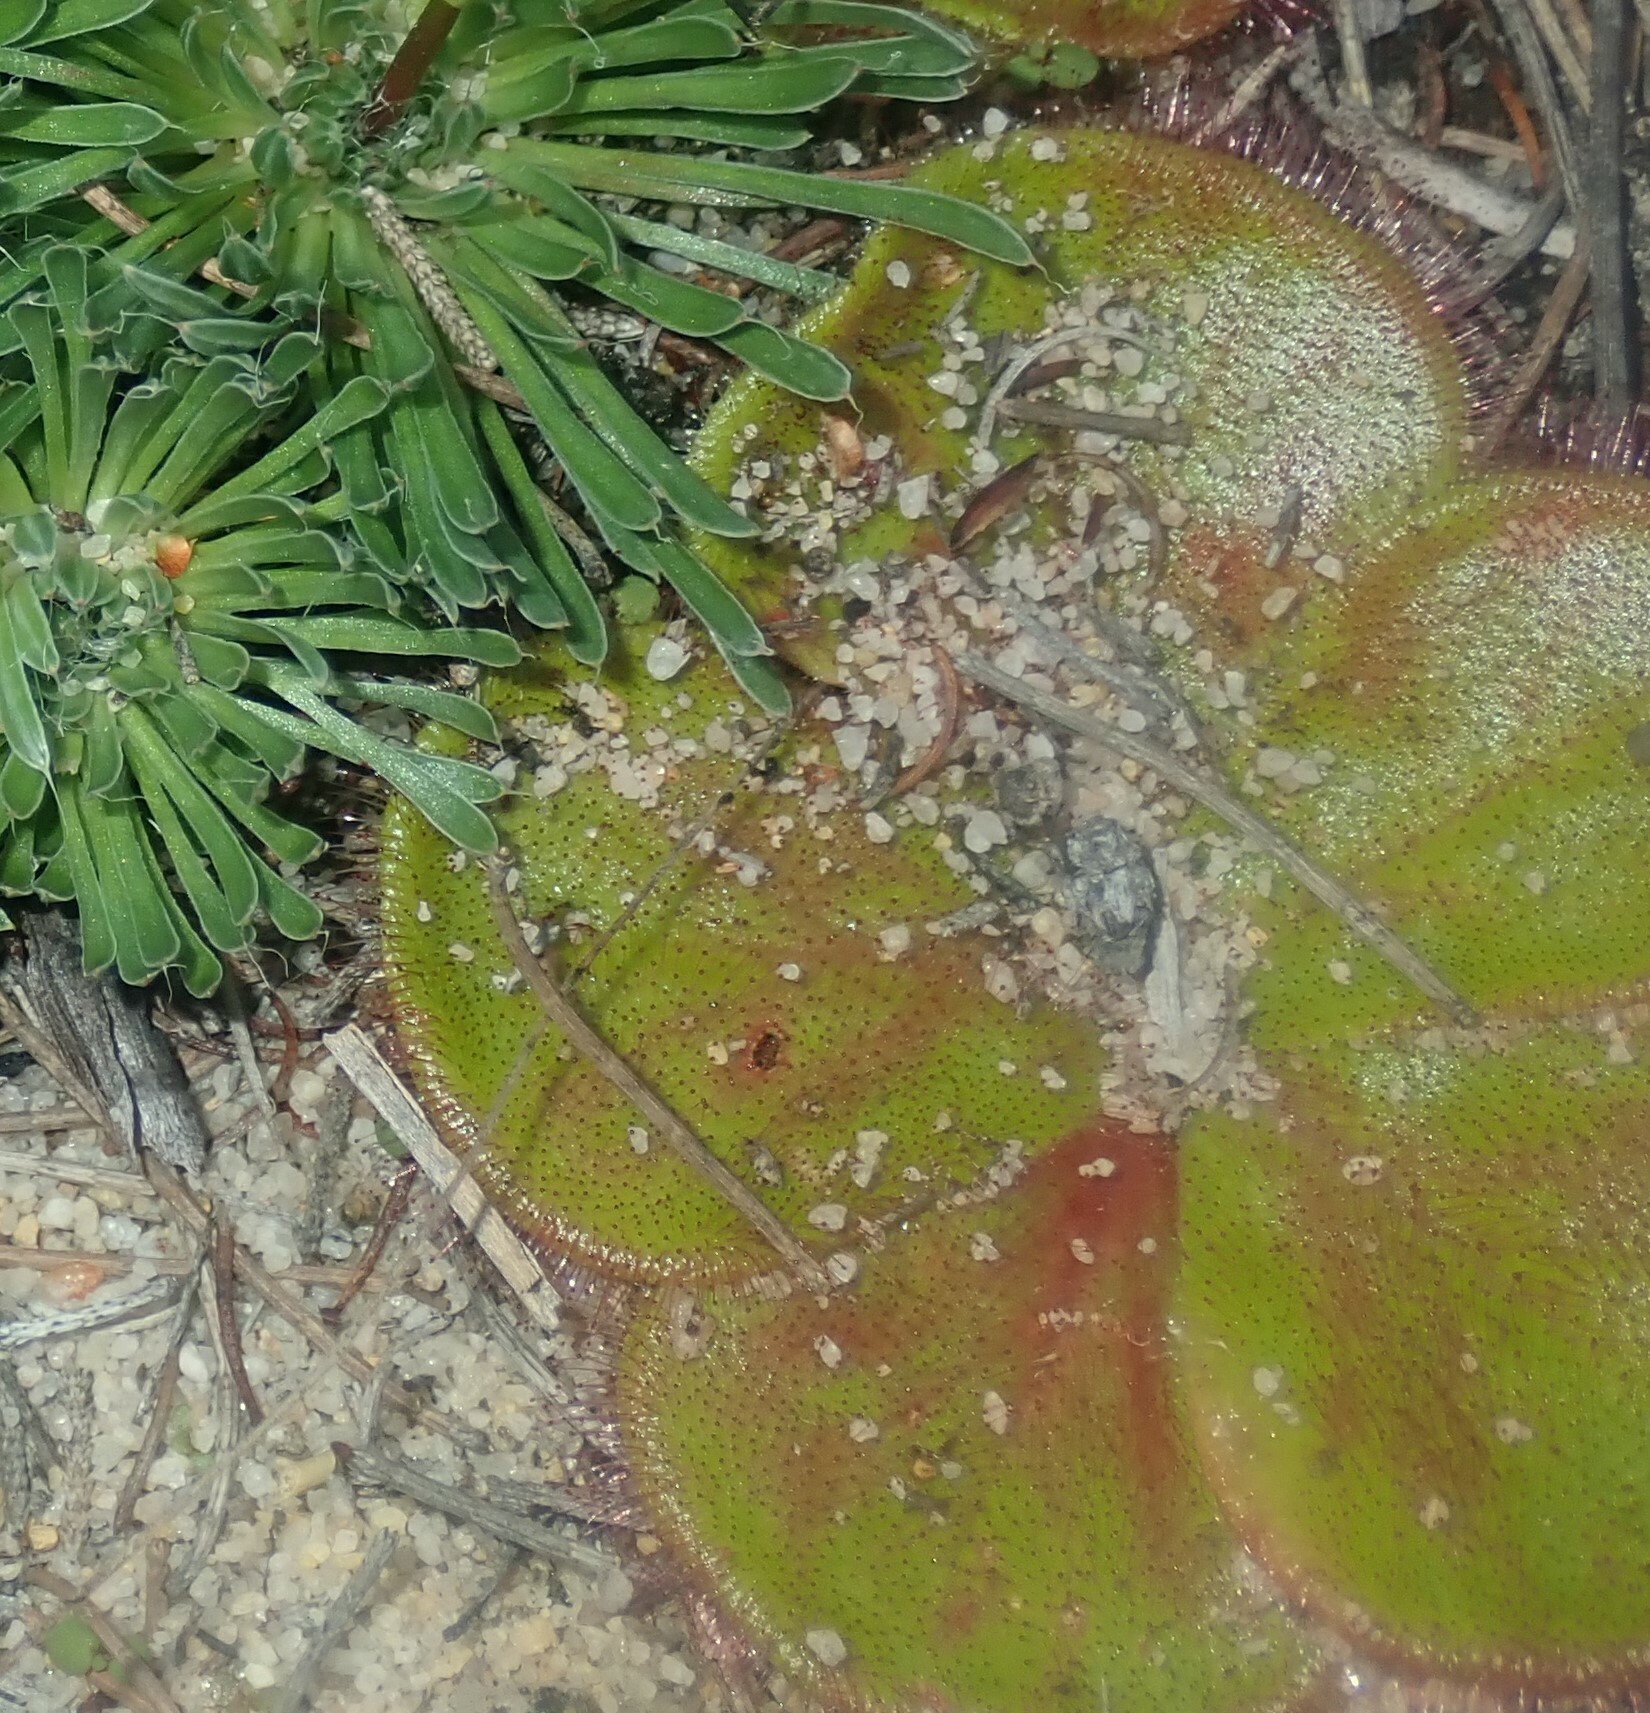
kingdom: Plantae
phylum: Tracheophyta
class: Magnoliopsida
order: Caryophyllales
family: Droseraceae
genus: Drosera
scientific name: Drosera erythrorhiza
